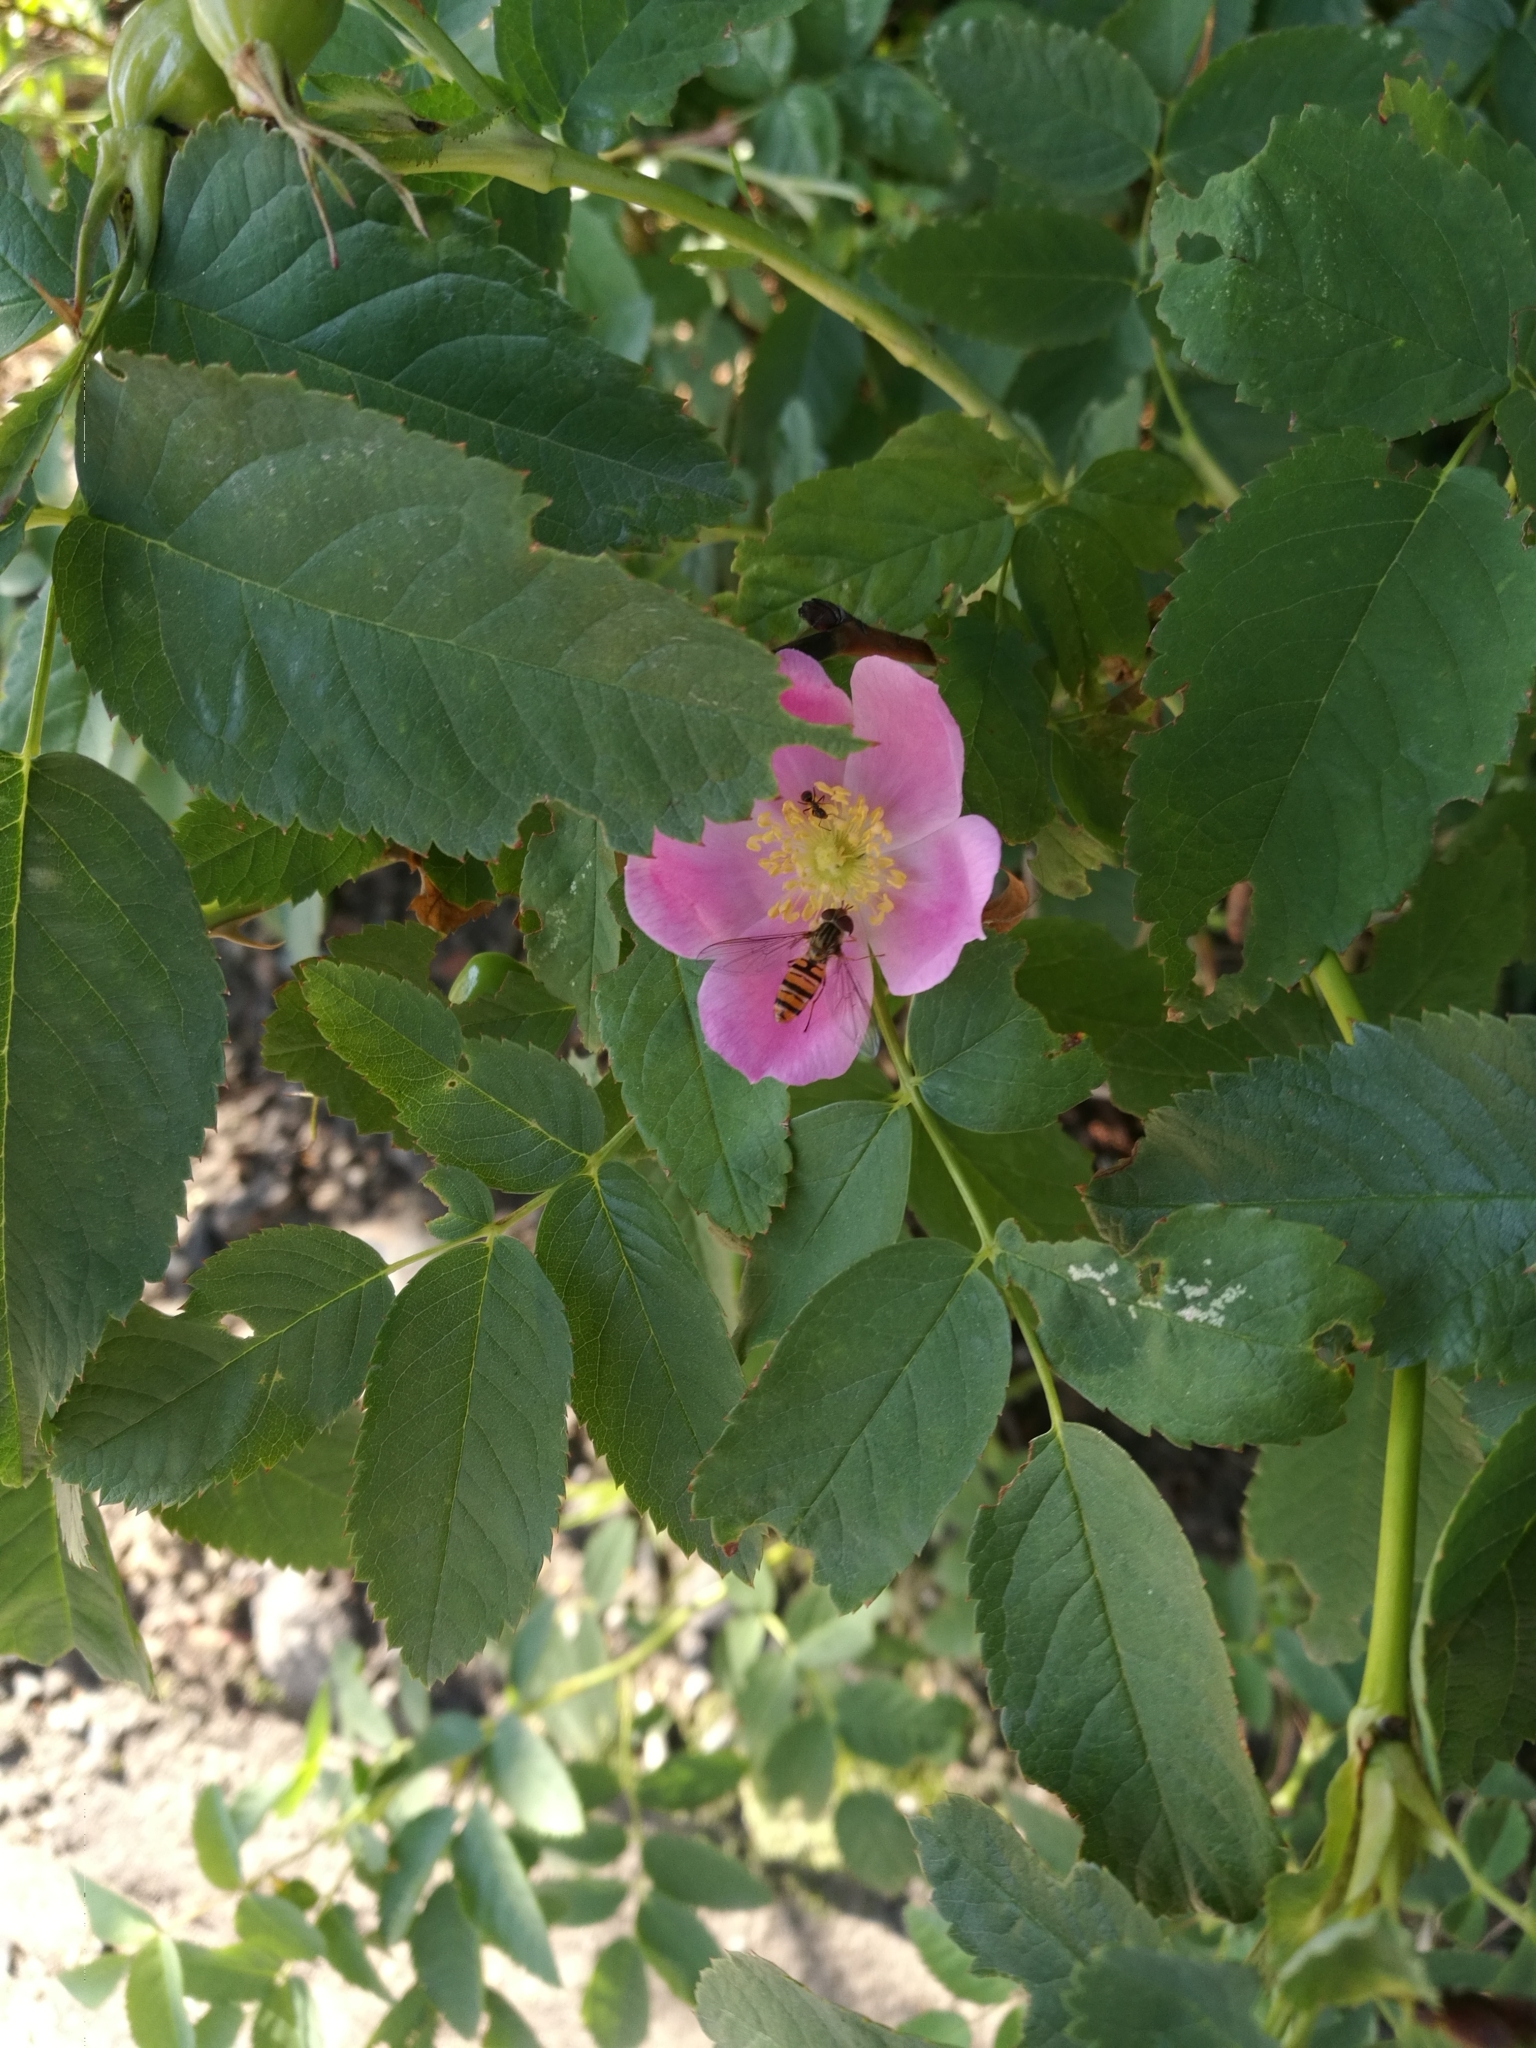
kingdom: Animalia
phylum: Arthropoda
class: Insecta
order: Diptera
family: Syrphidae
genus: Episyrphus
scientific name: Episyrphus balteatus
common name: Marmalade hoverfly
